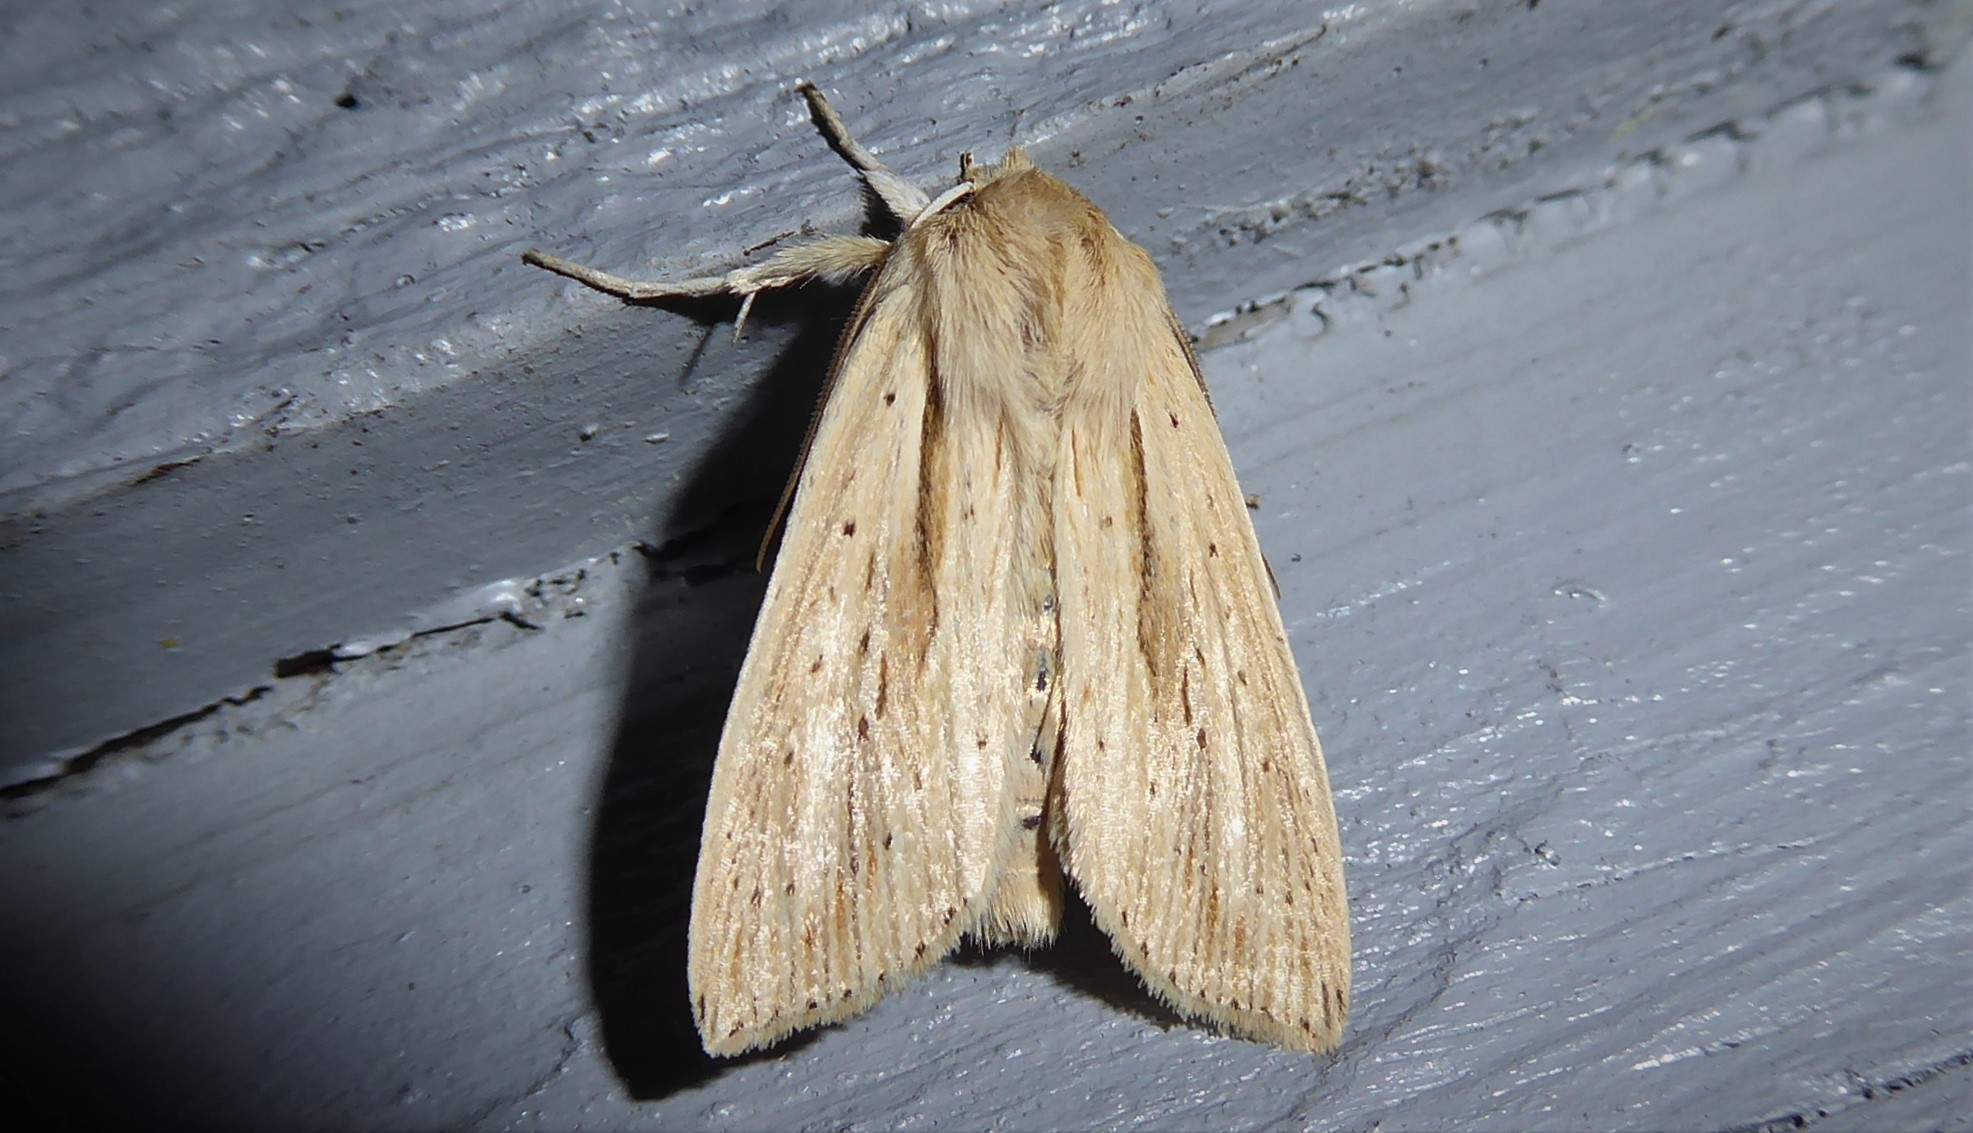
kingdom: Animalia
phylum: Arthropoda
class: Insecta
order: Lepidoptera
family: Noctuidae
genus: Ichneutica
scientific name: Ichneutica semivittata
